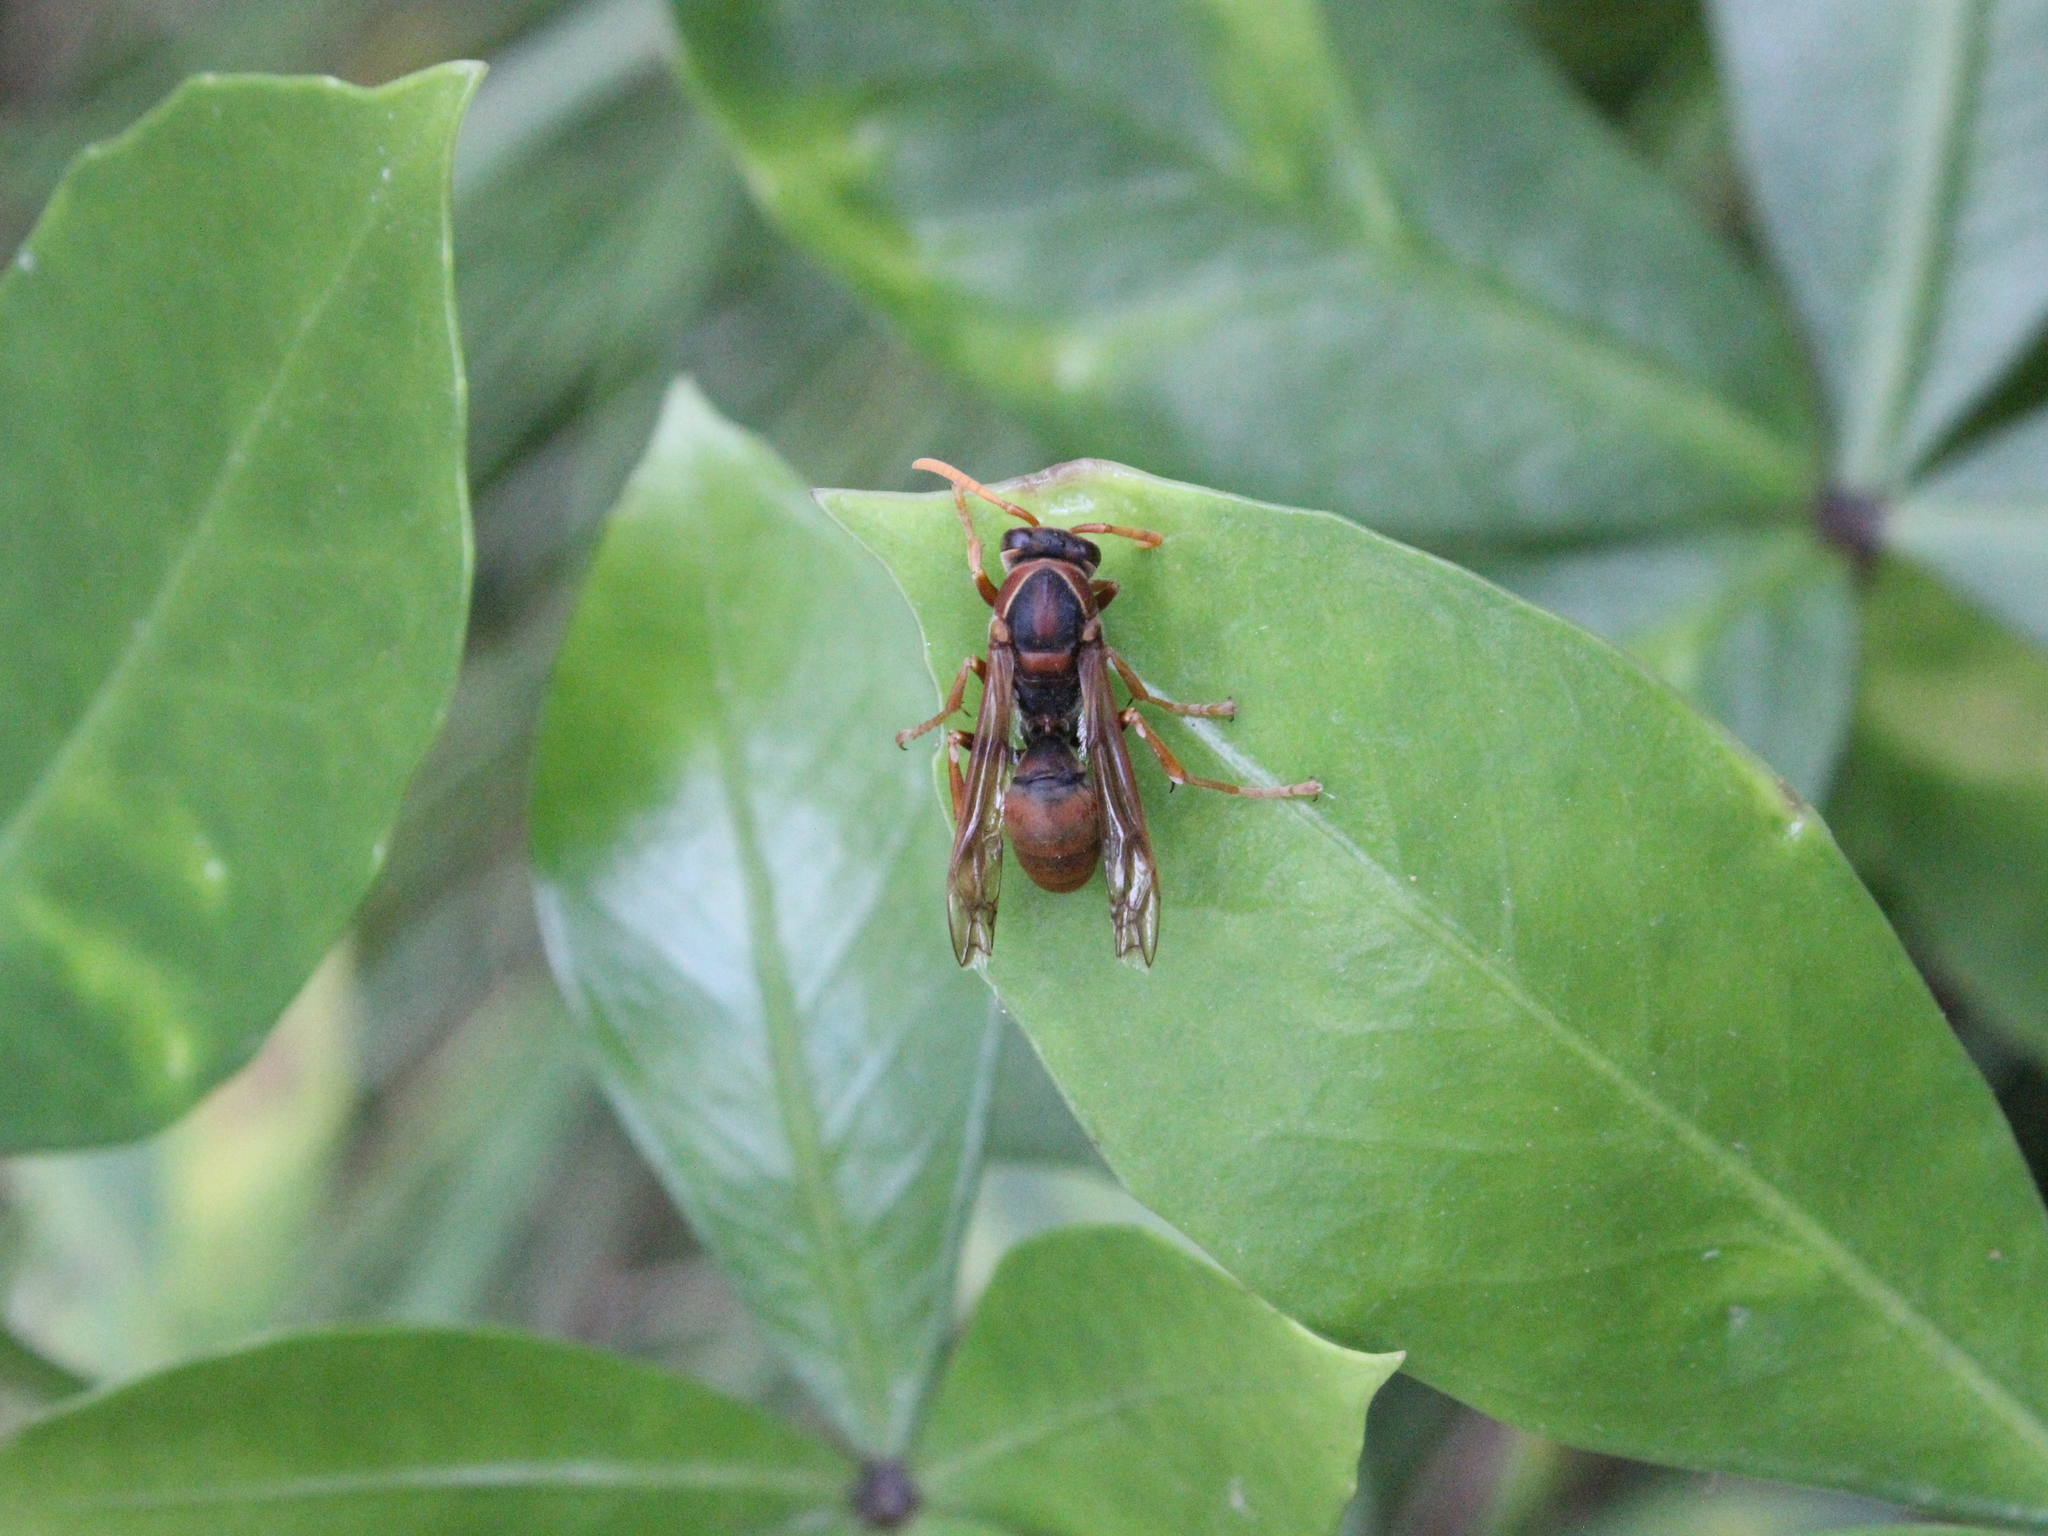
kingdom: Animalia
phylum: Arthropoda
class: Insecta
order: Hymenoptera
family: Eumenidae
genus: Polistes
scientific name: Polistes humilis
